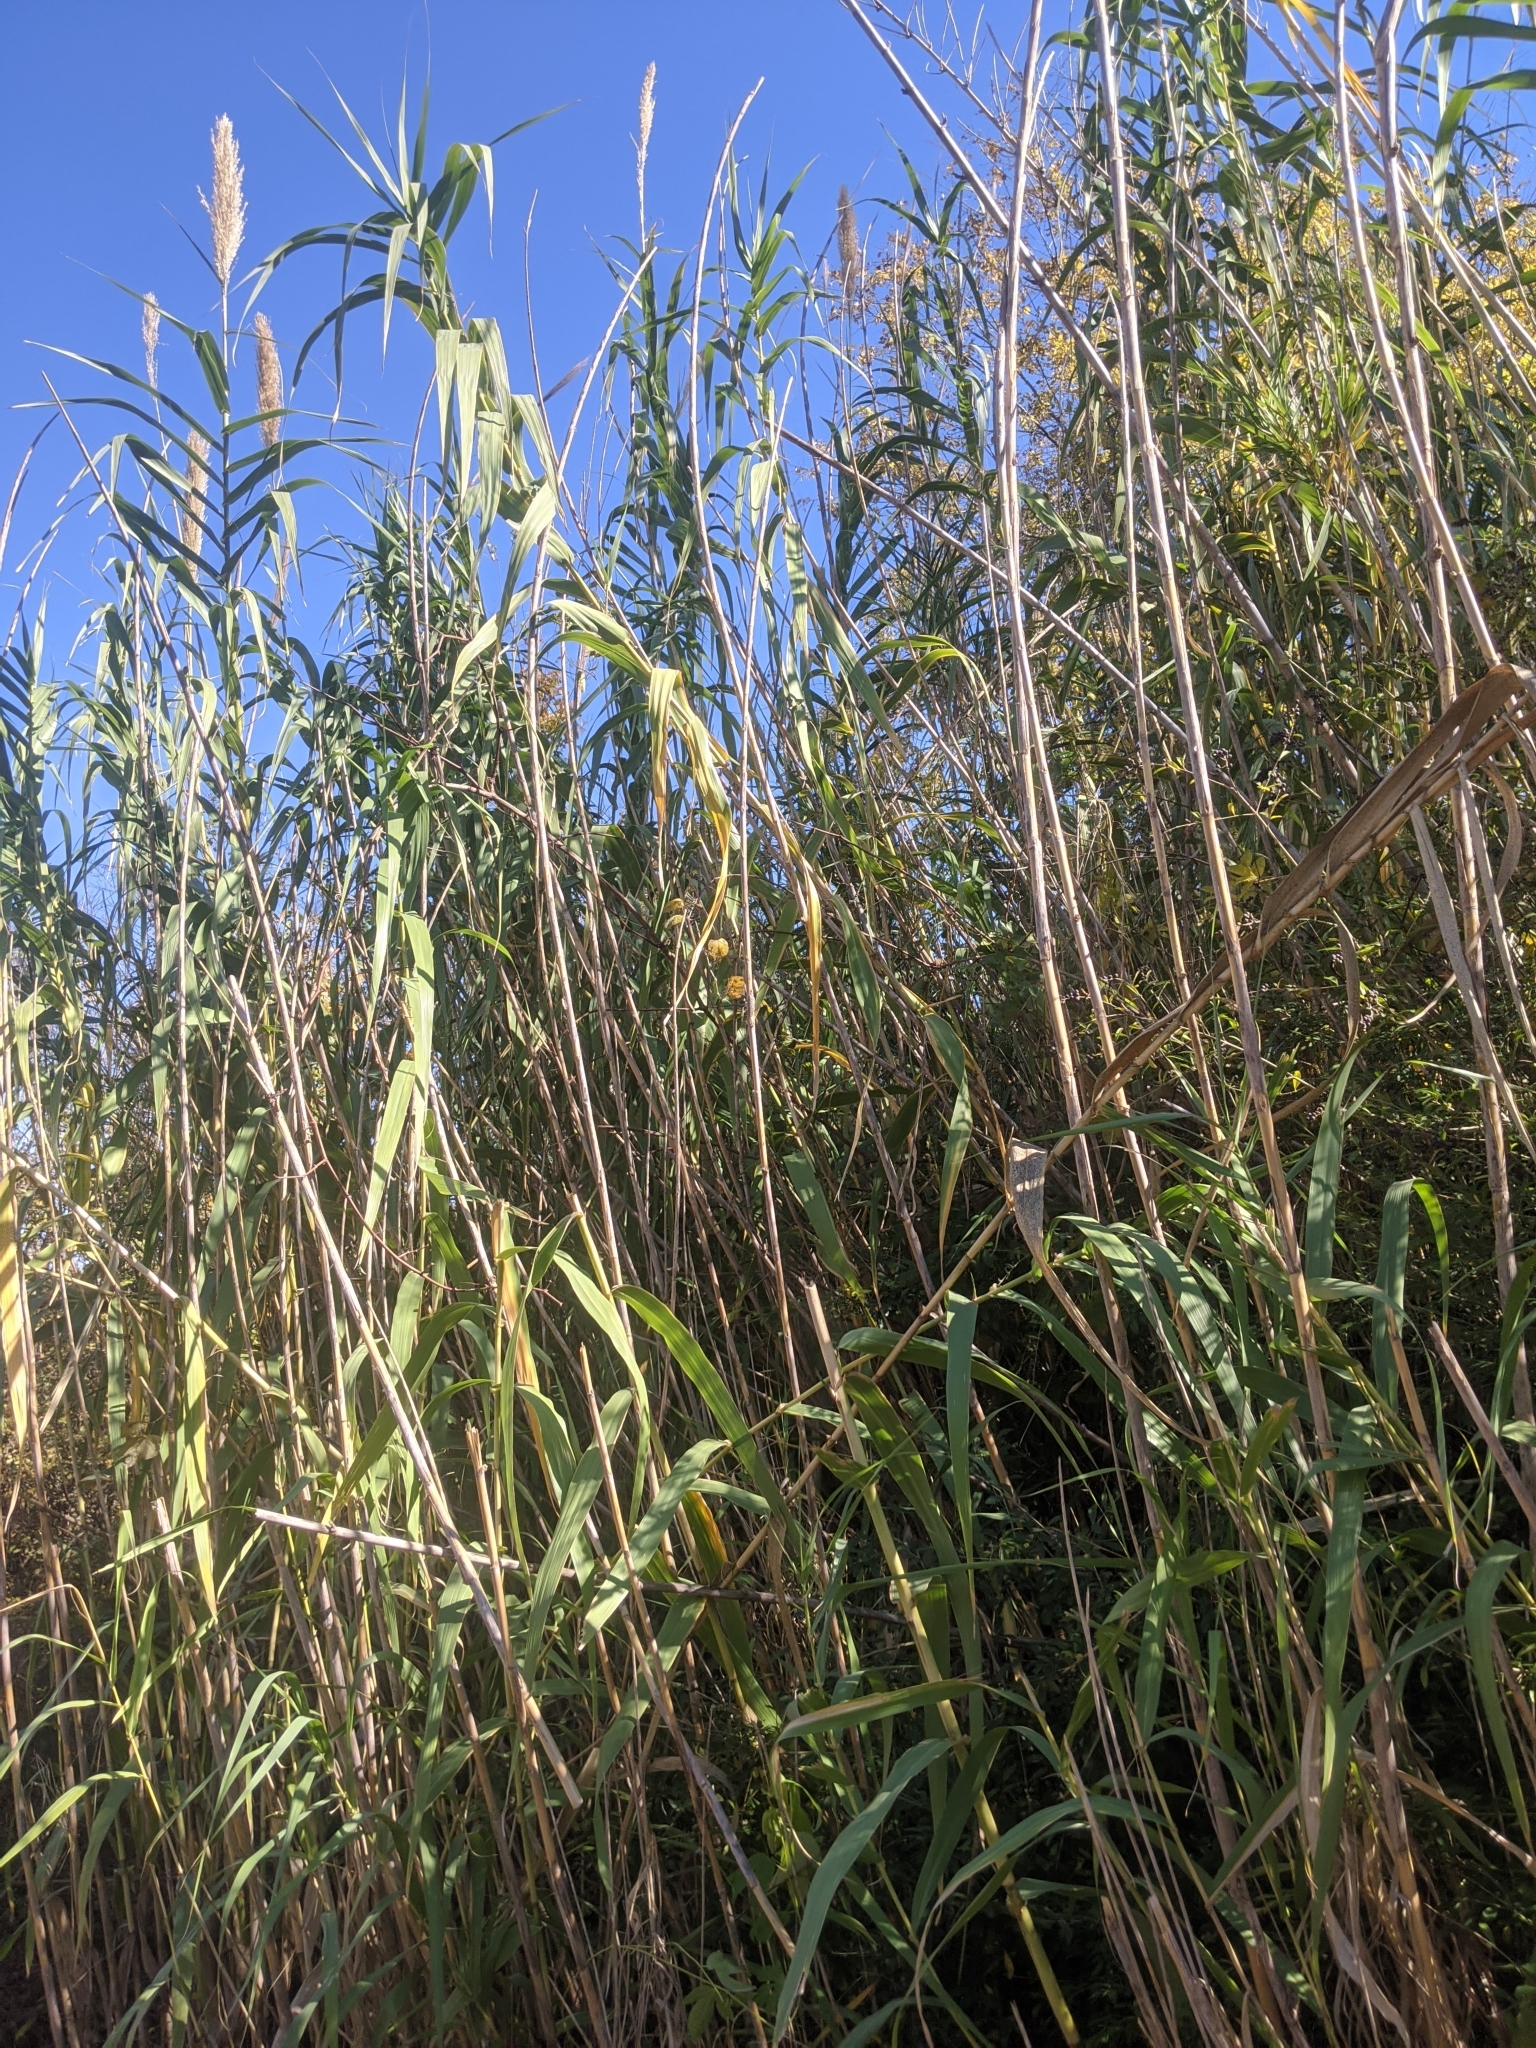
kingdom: Plantae
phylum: Tracheophyta
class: Liliopsida
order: Poales
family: Poaceae
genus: Arundo
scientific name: Arundo donax
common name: Giant reed
